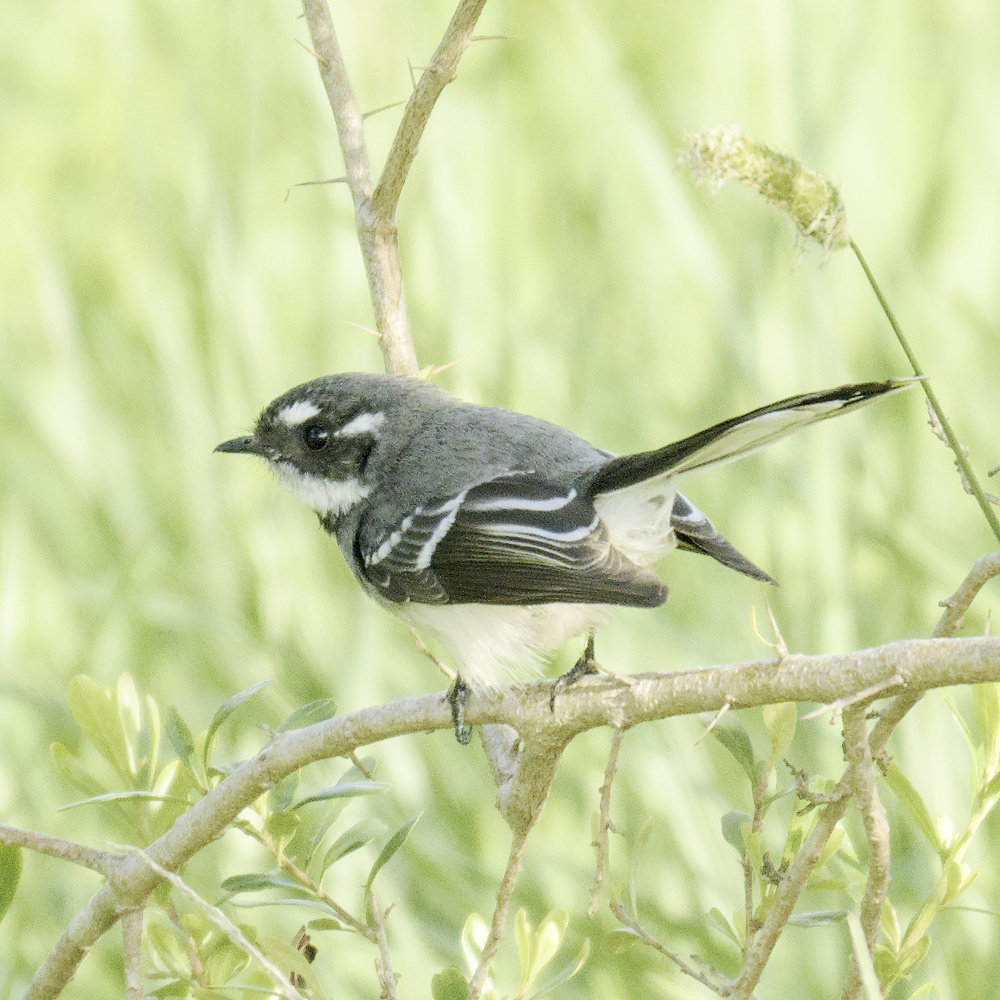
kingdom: Animalia
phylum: Chordata
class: Aves
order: Passeriformes
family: Rhipiduridae
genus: Rhipidura
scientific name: Rhipidura albiscapa
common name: Grey fantail
